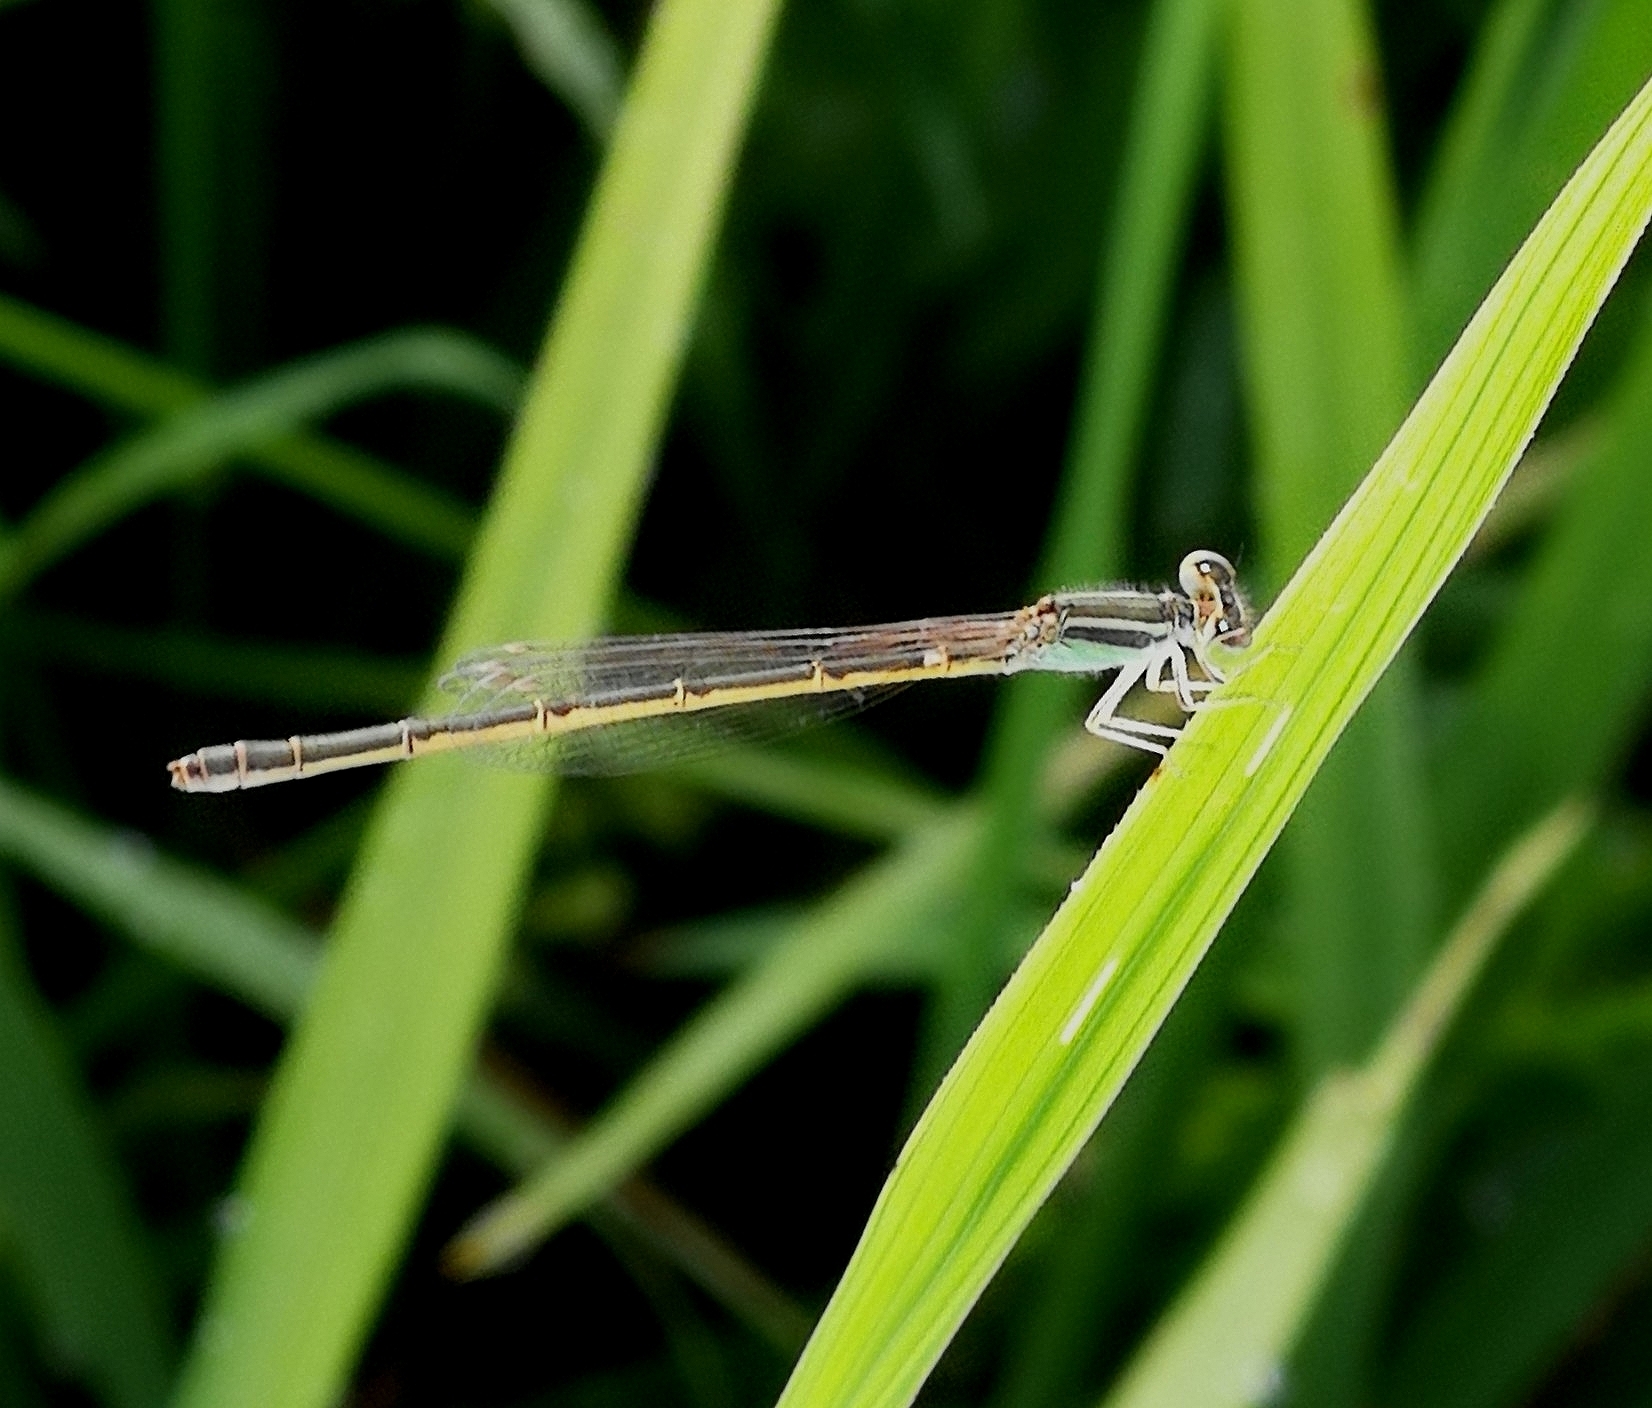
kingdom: Animalia
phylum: Arthropoda
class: Insecta
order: Odonata
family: Coenagrionidae
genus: Ischnura
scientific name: Ischnura rubilio
